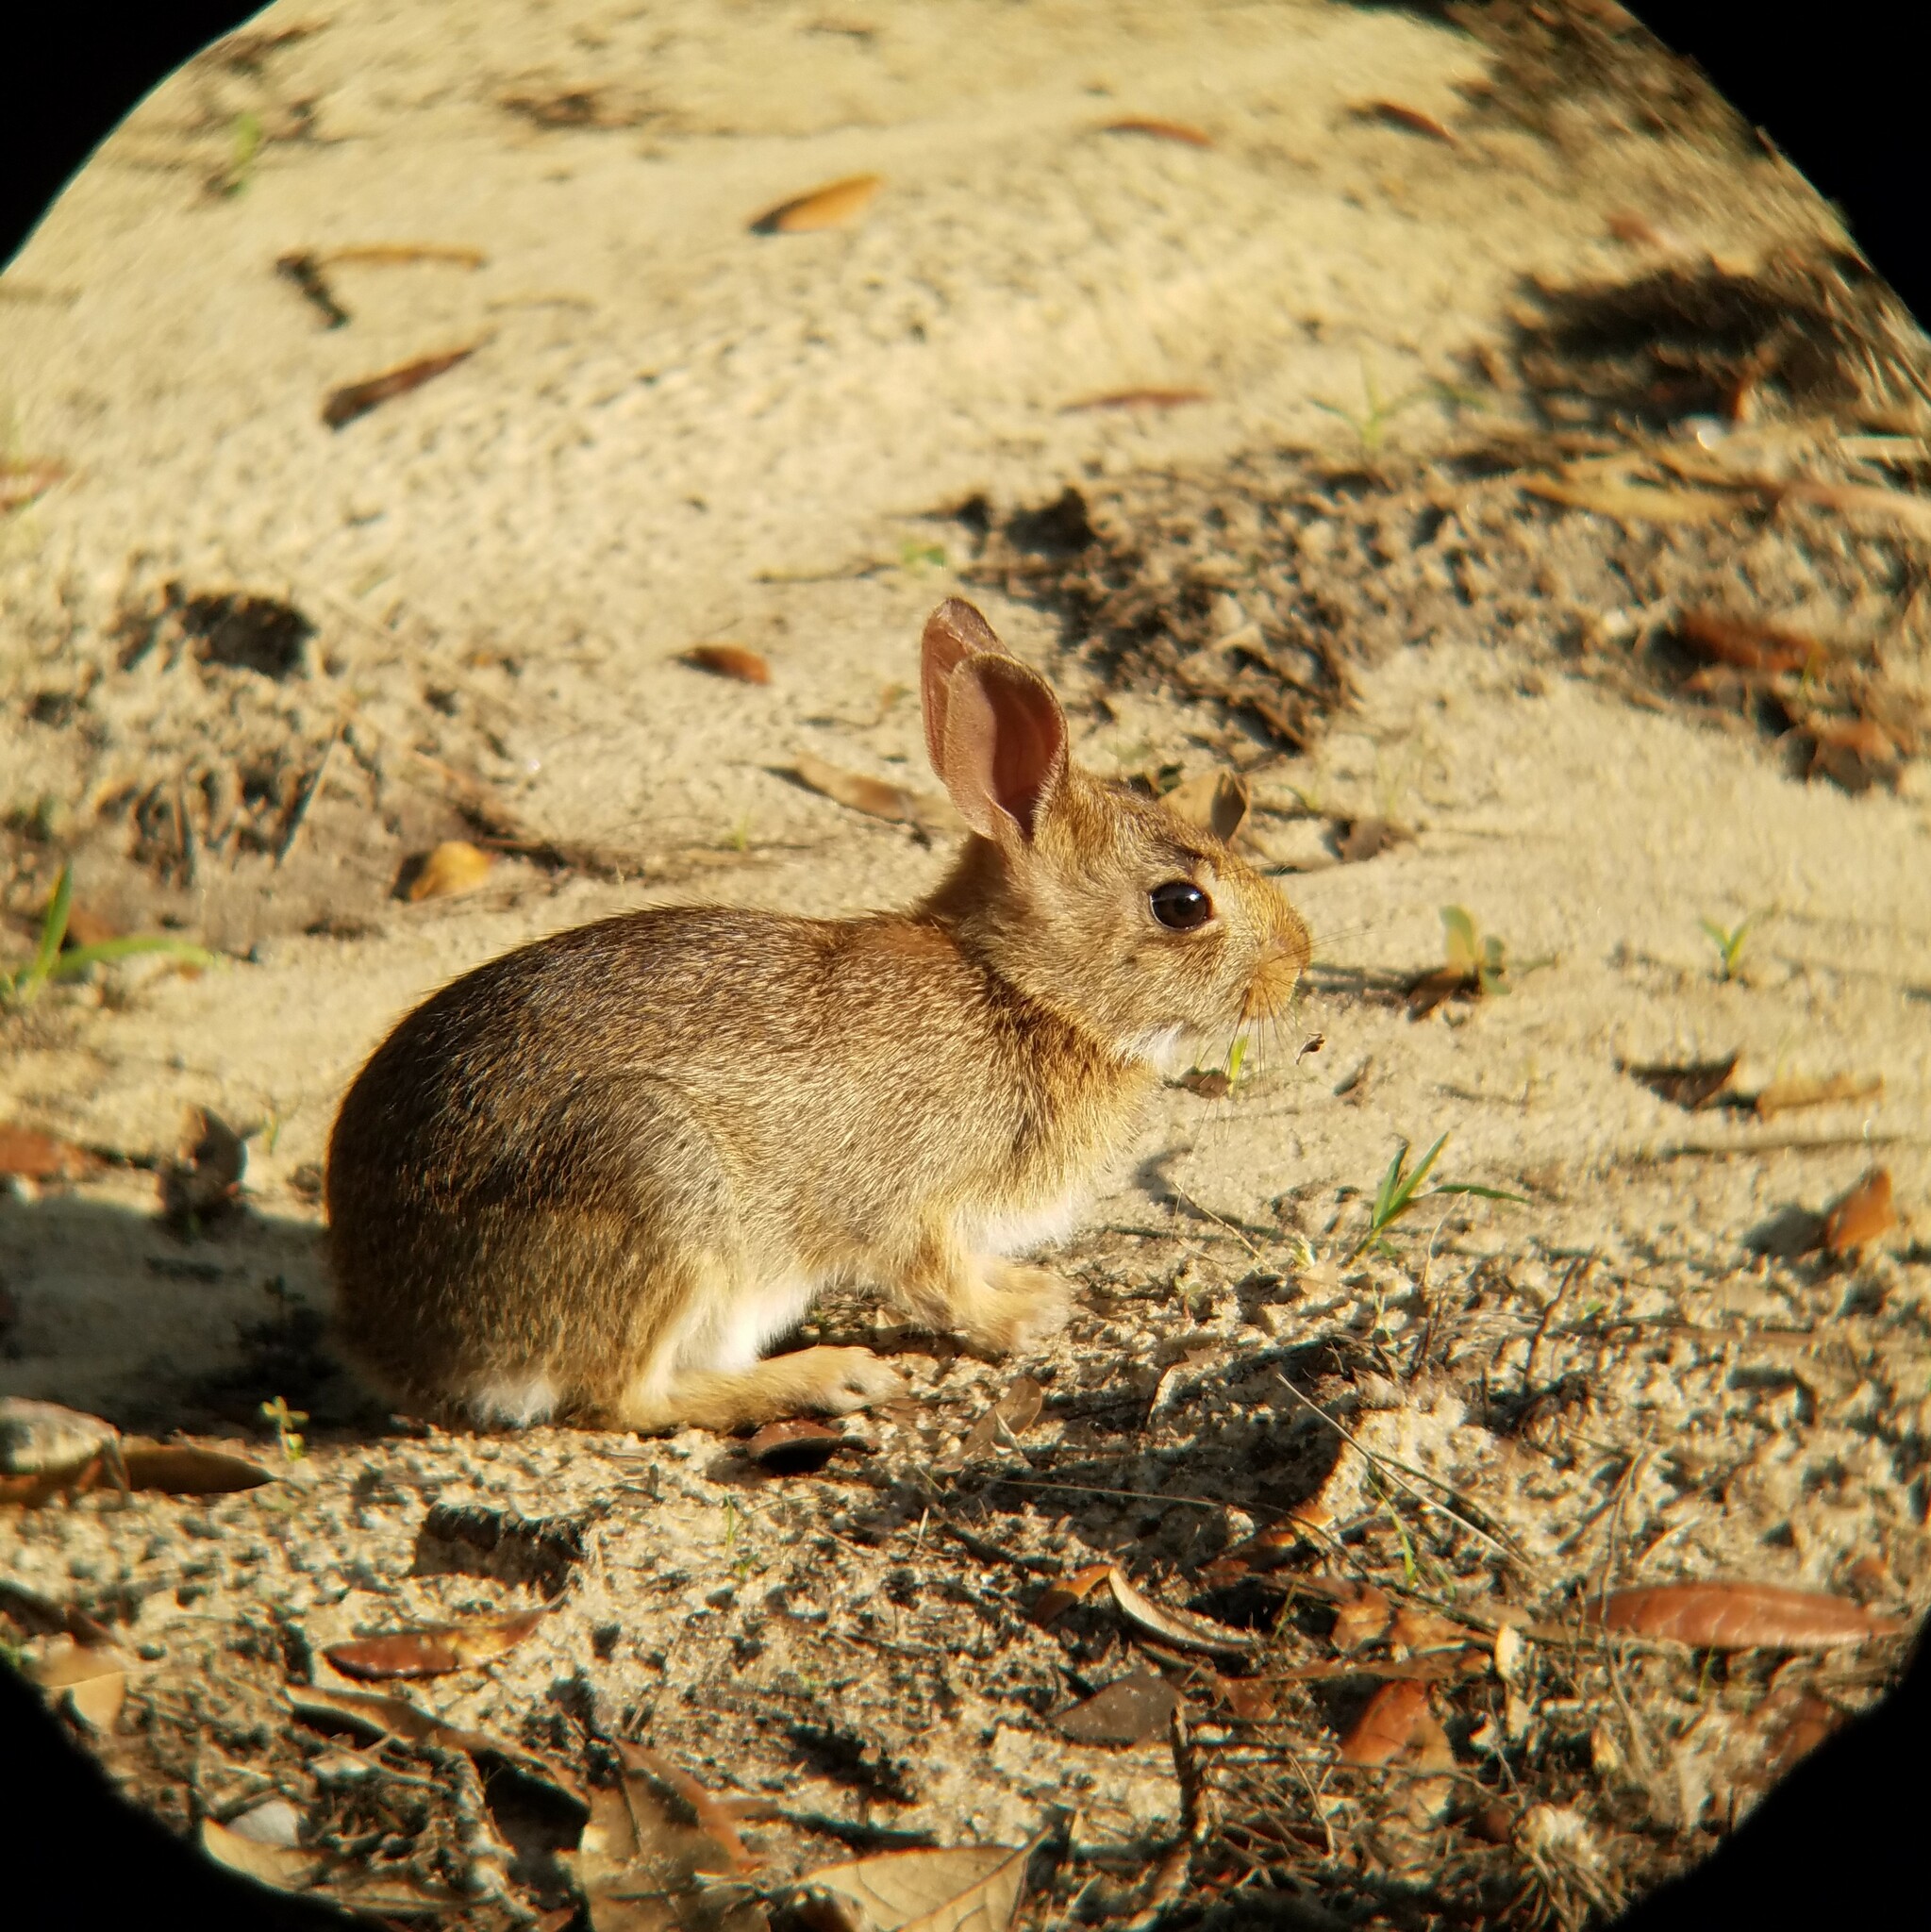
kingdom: Animalia
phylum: Chordata
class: Mammalia
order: Lagomorpha
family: Leporidae
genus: Sylvilagus
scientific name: Sylvilagus floridanus
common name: Eastern cottontail
